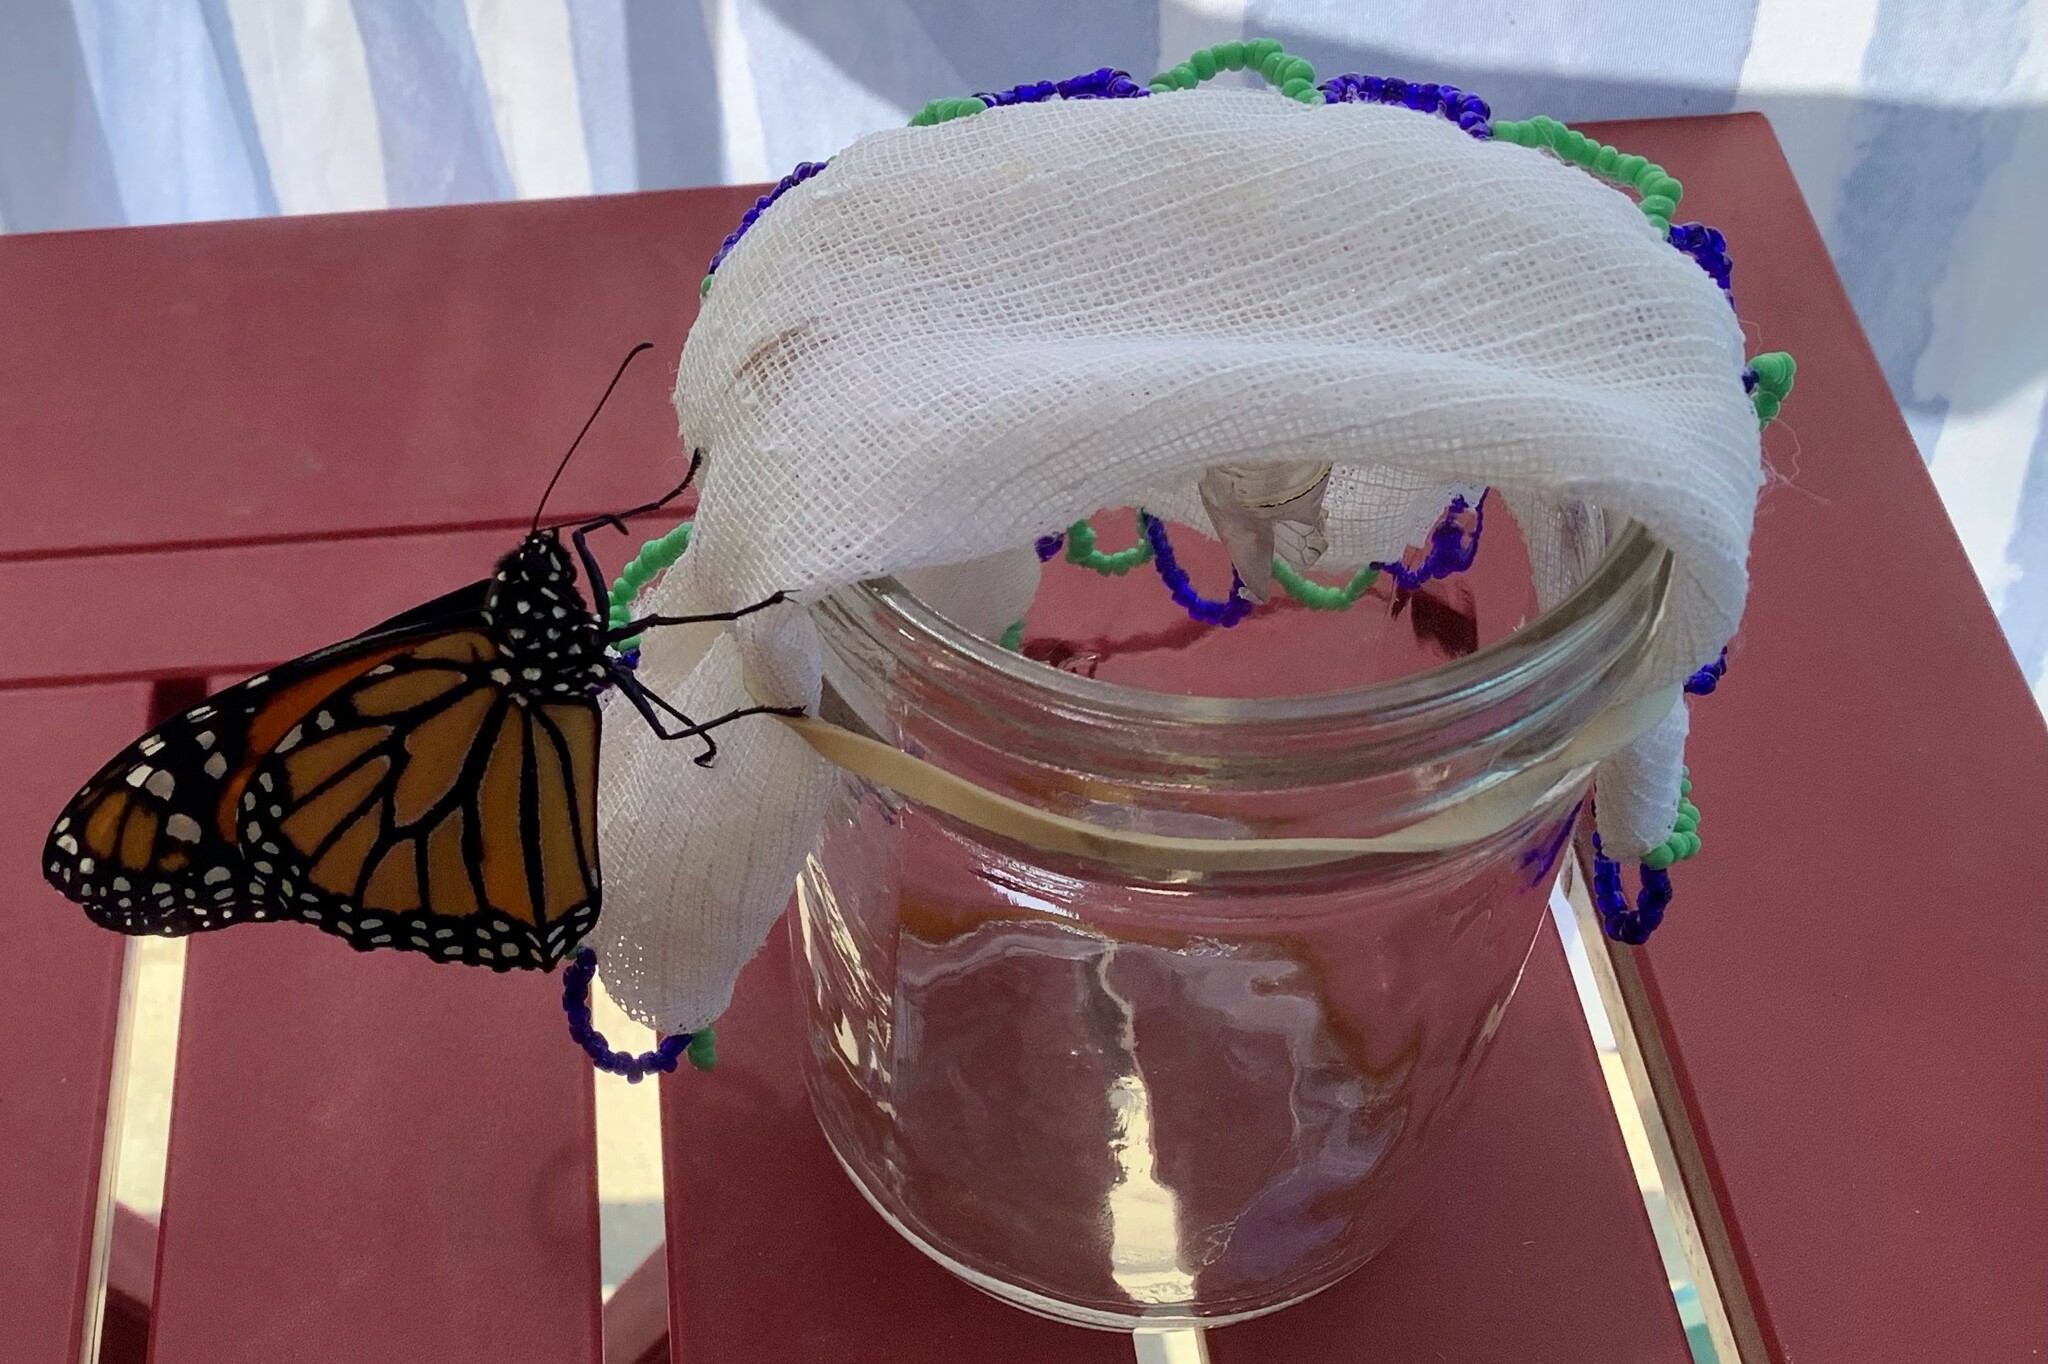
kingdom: Animalia
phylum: Arthropoda
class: Insecta
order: Lepidoptera
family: Nymphalidae
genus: Danaus
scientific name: Danaus plexippus
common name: Monarch
